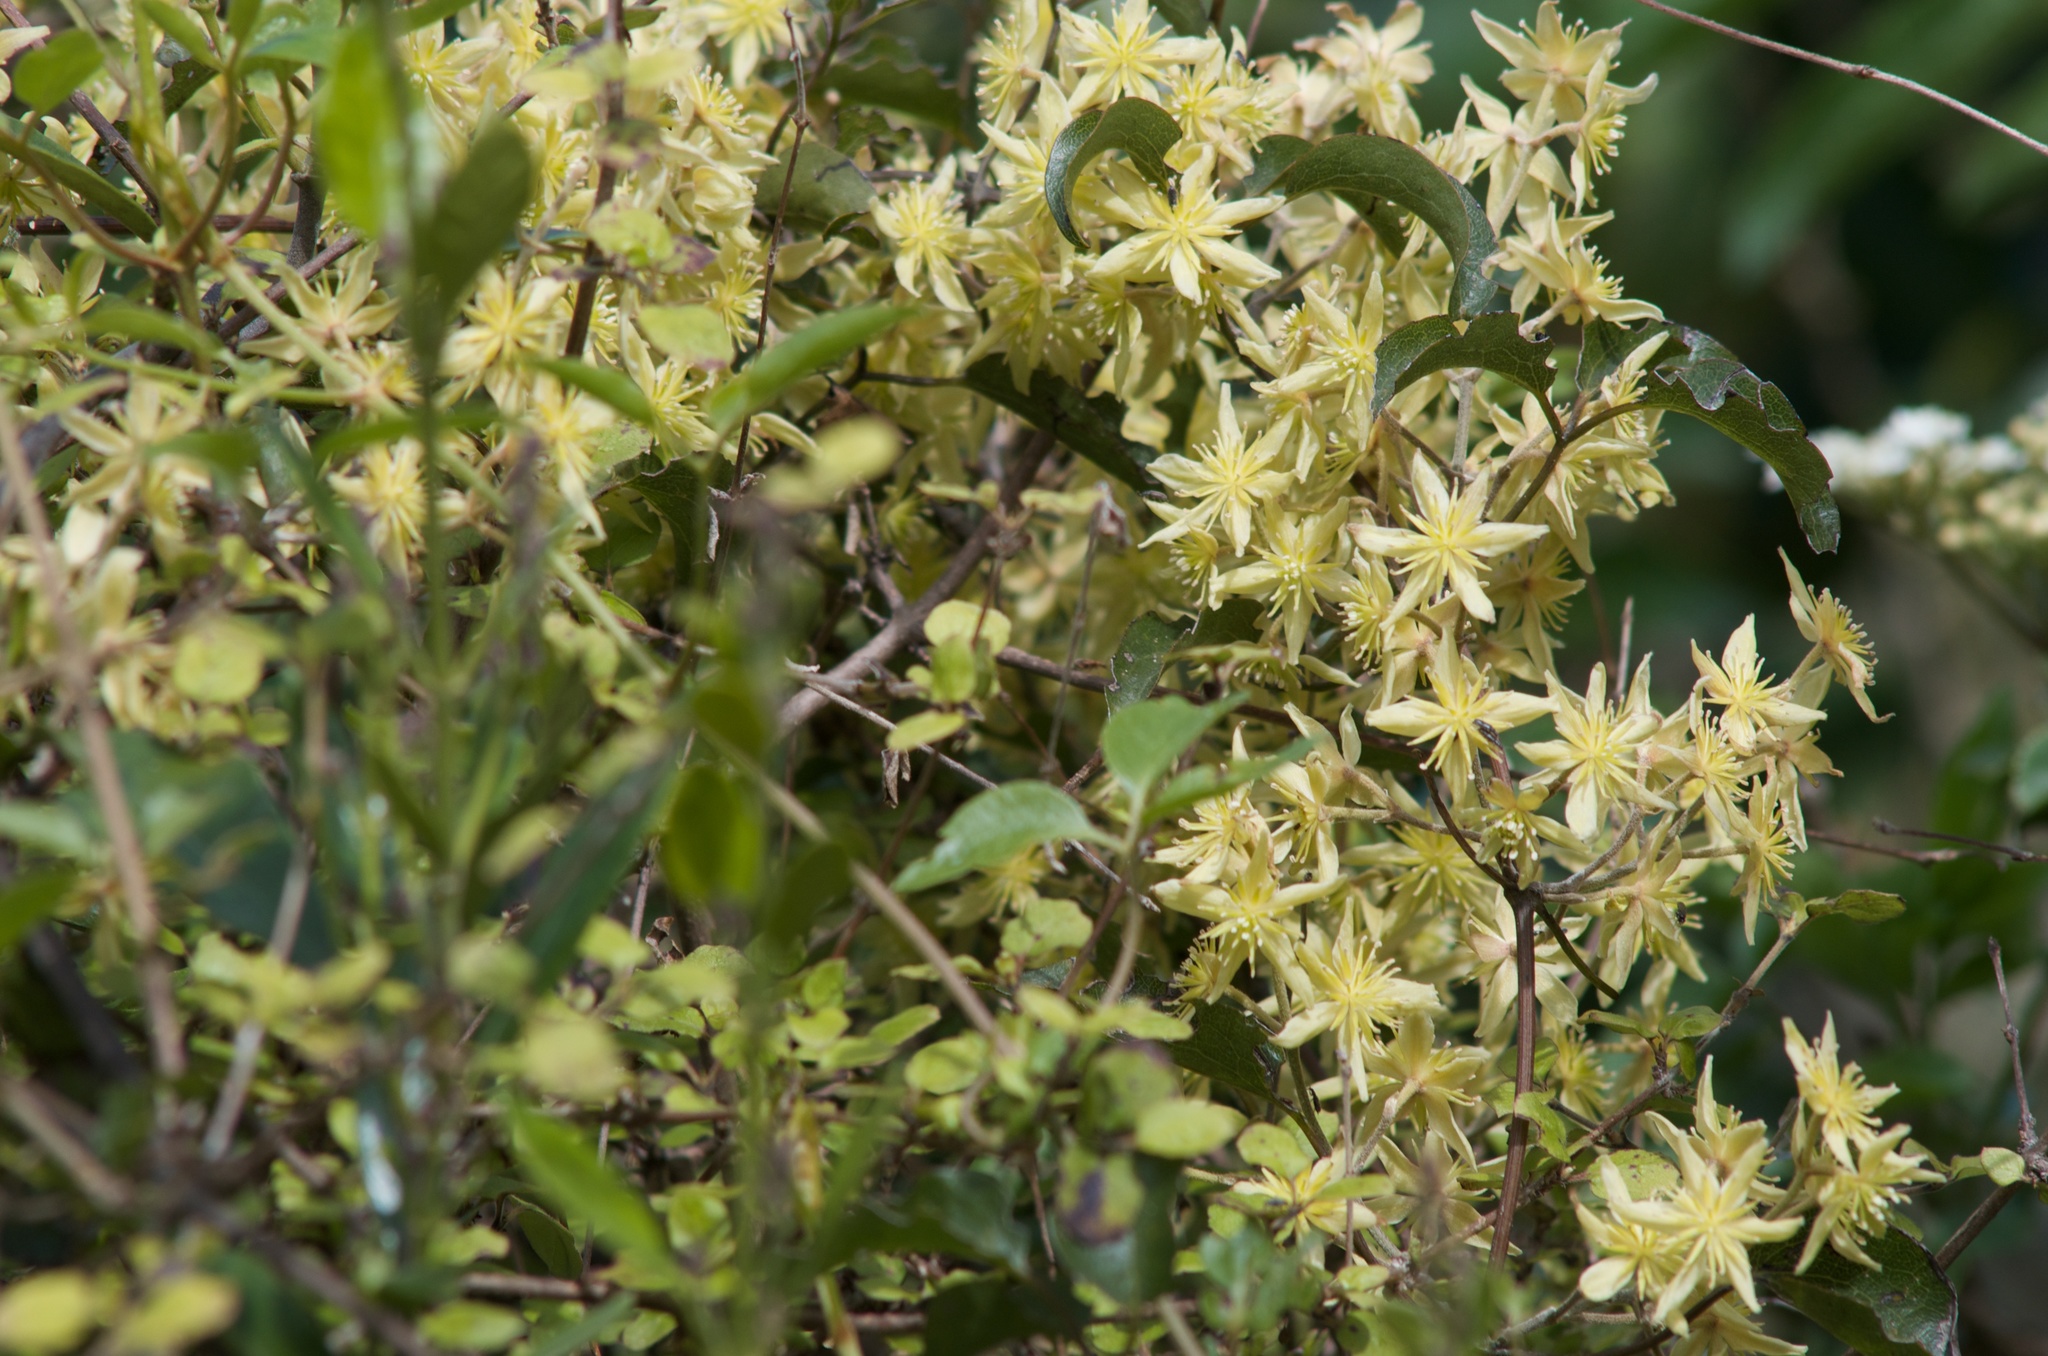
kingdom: Plantae
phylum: Tracheophyta
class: Magnoliopsida
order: Ranunculales
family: Ranunculaceae
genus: Clematis
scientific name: Clematis foetida
